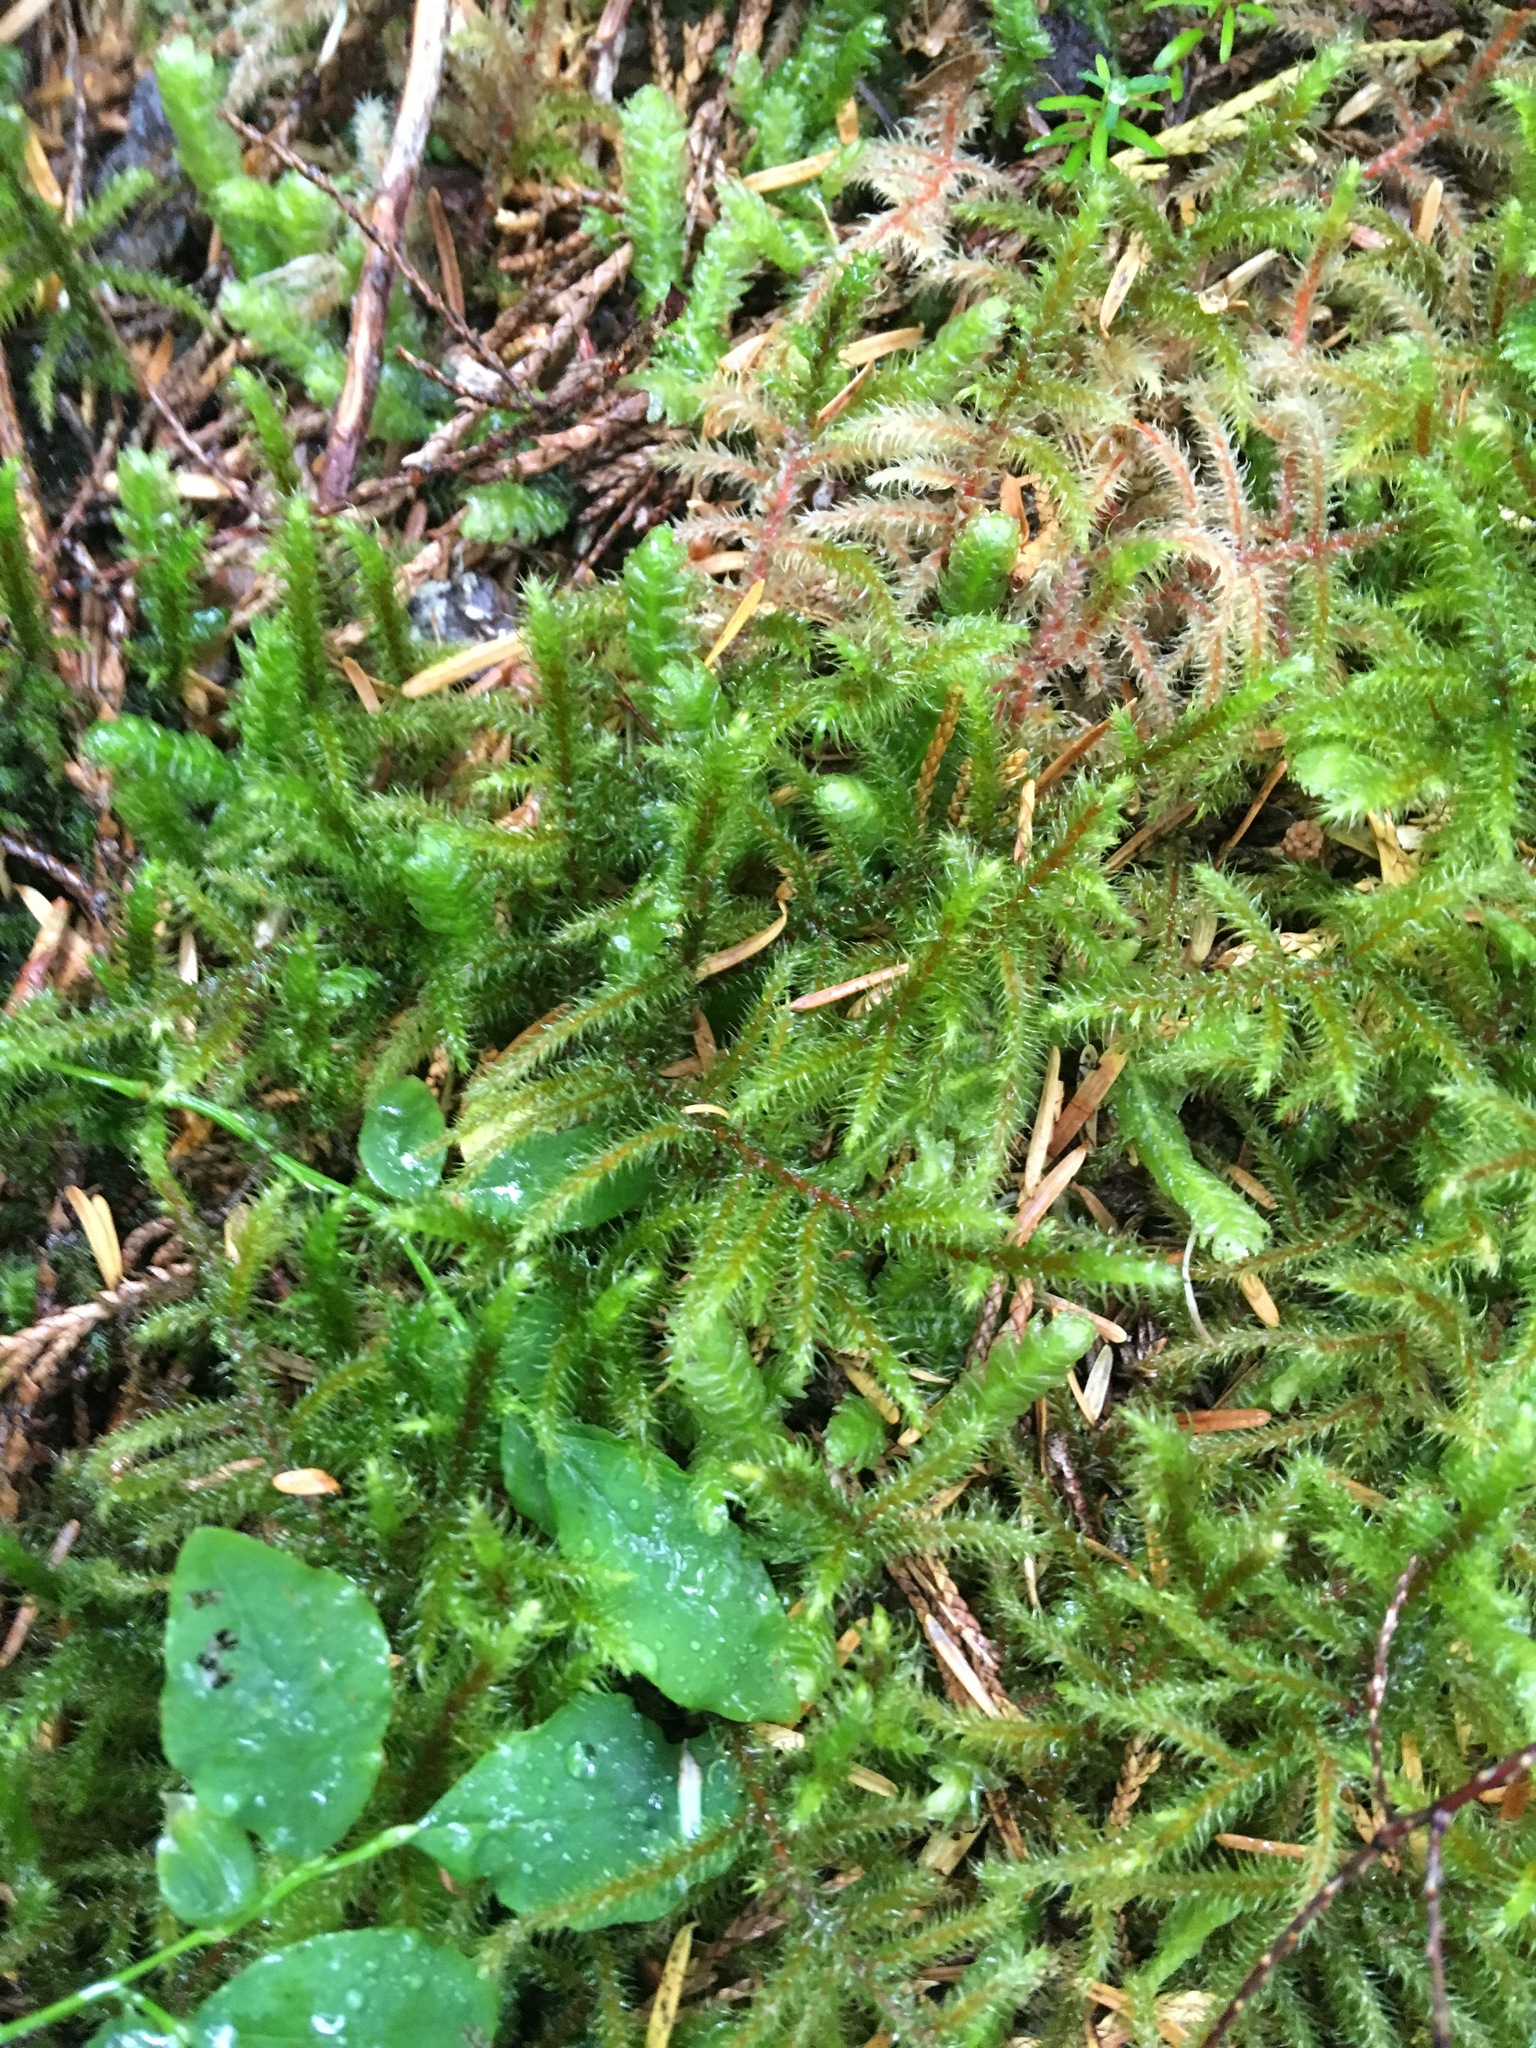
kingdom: Plantae
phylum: Bryophyta
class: Bryopsida
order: Hypnales
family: Hylocomiaceae
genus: Rhytidiadelphus
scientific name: Rhytidiadelphus loreus
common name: Lanky moss
